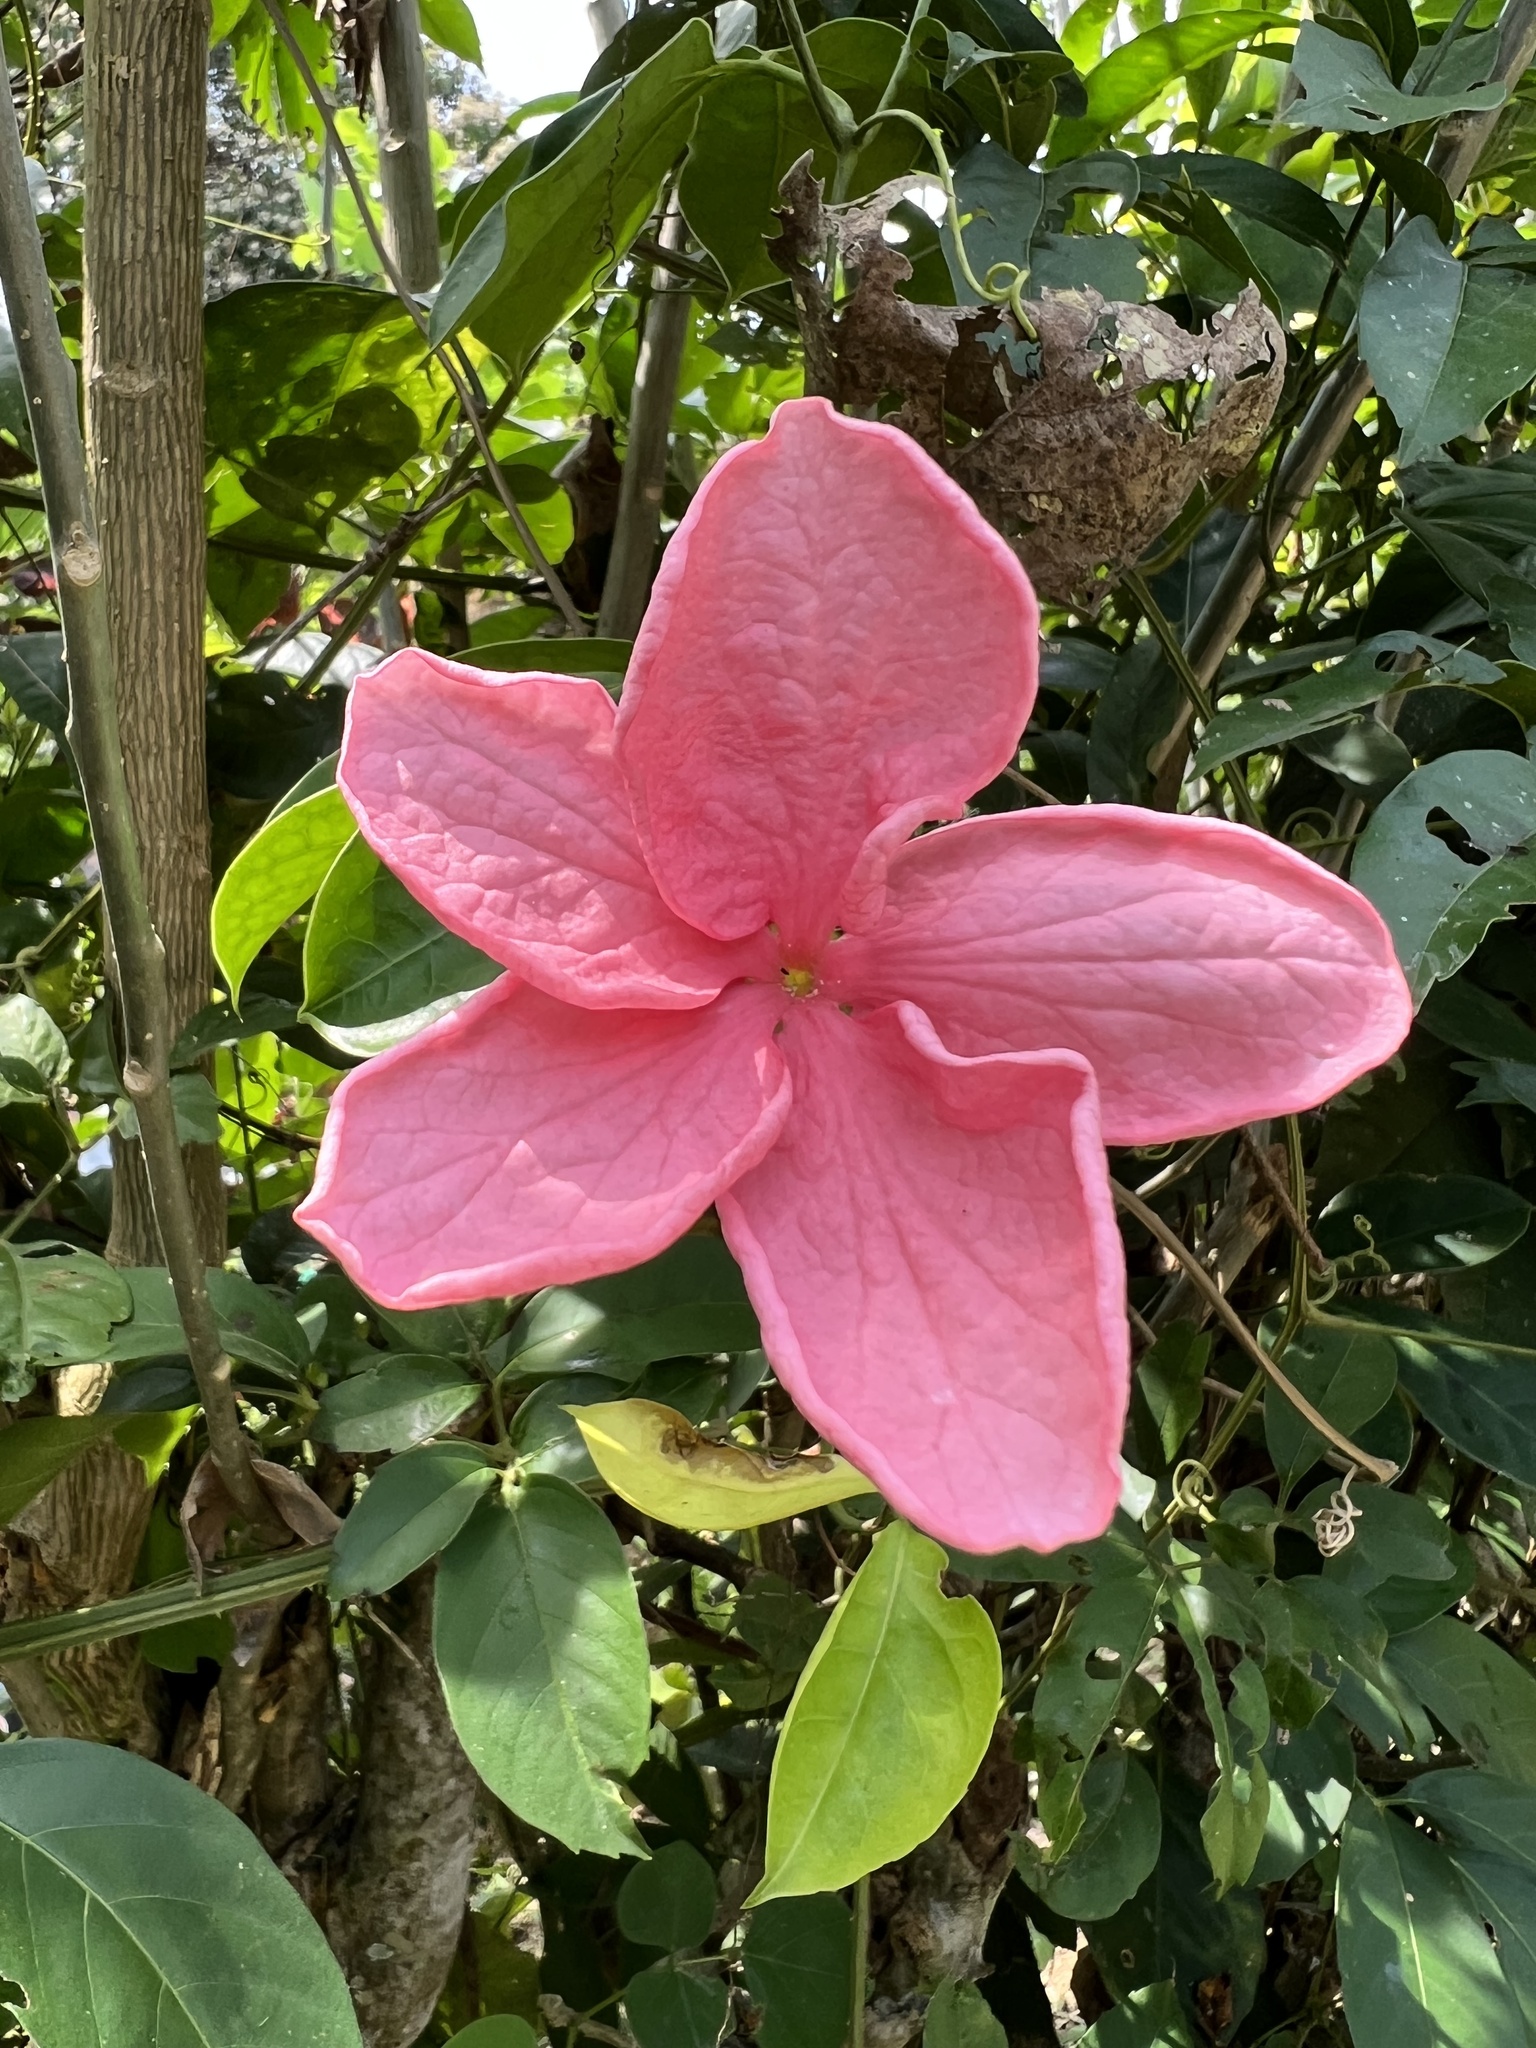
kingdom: Plantae
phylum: Tracheophyta
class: Magnoliopsida
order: Cucurbitales
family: Cucurbitaceae
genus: Psiguria
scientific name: Psiguria ternata
